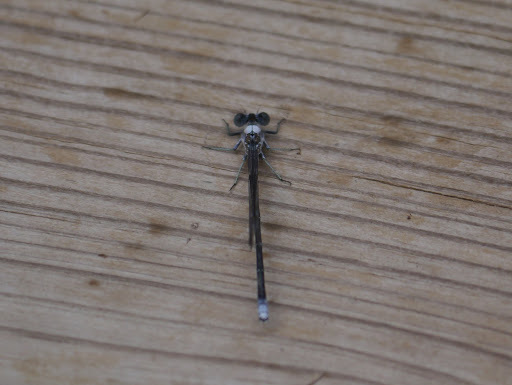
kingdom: Animalia
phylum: Arthropoda
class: Insecta
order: Odonata
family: Coenagrionidae
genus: Argia
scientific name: Argia moesta
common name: Powdered dancer
